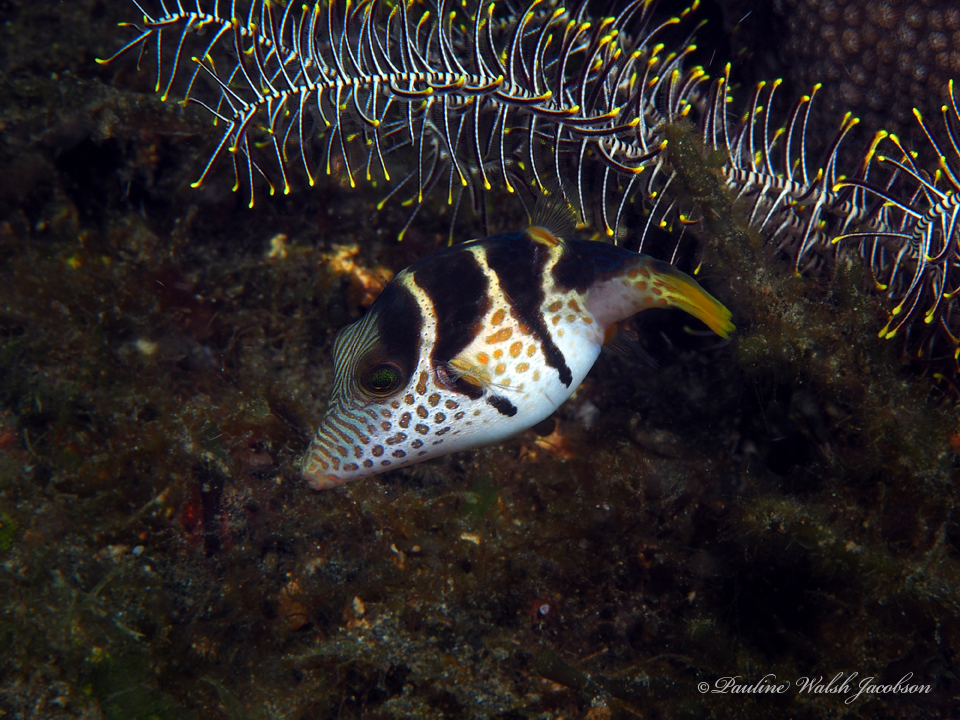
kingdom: Animalia
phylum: Chordata
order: Tetraodontiformes
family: Tetraodontidae
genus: Canthigaster
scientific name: Canthigaster valentini
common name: Banded toby
